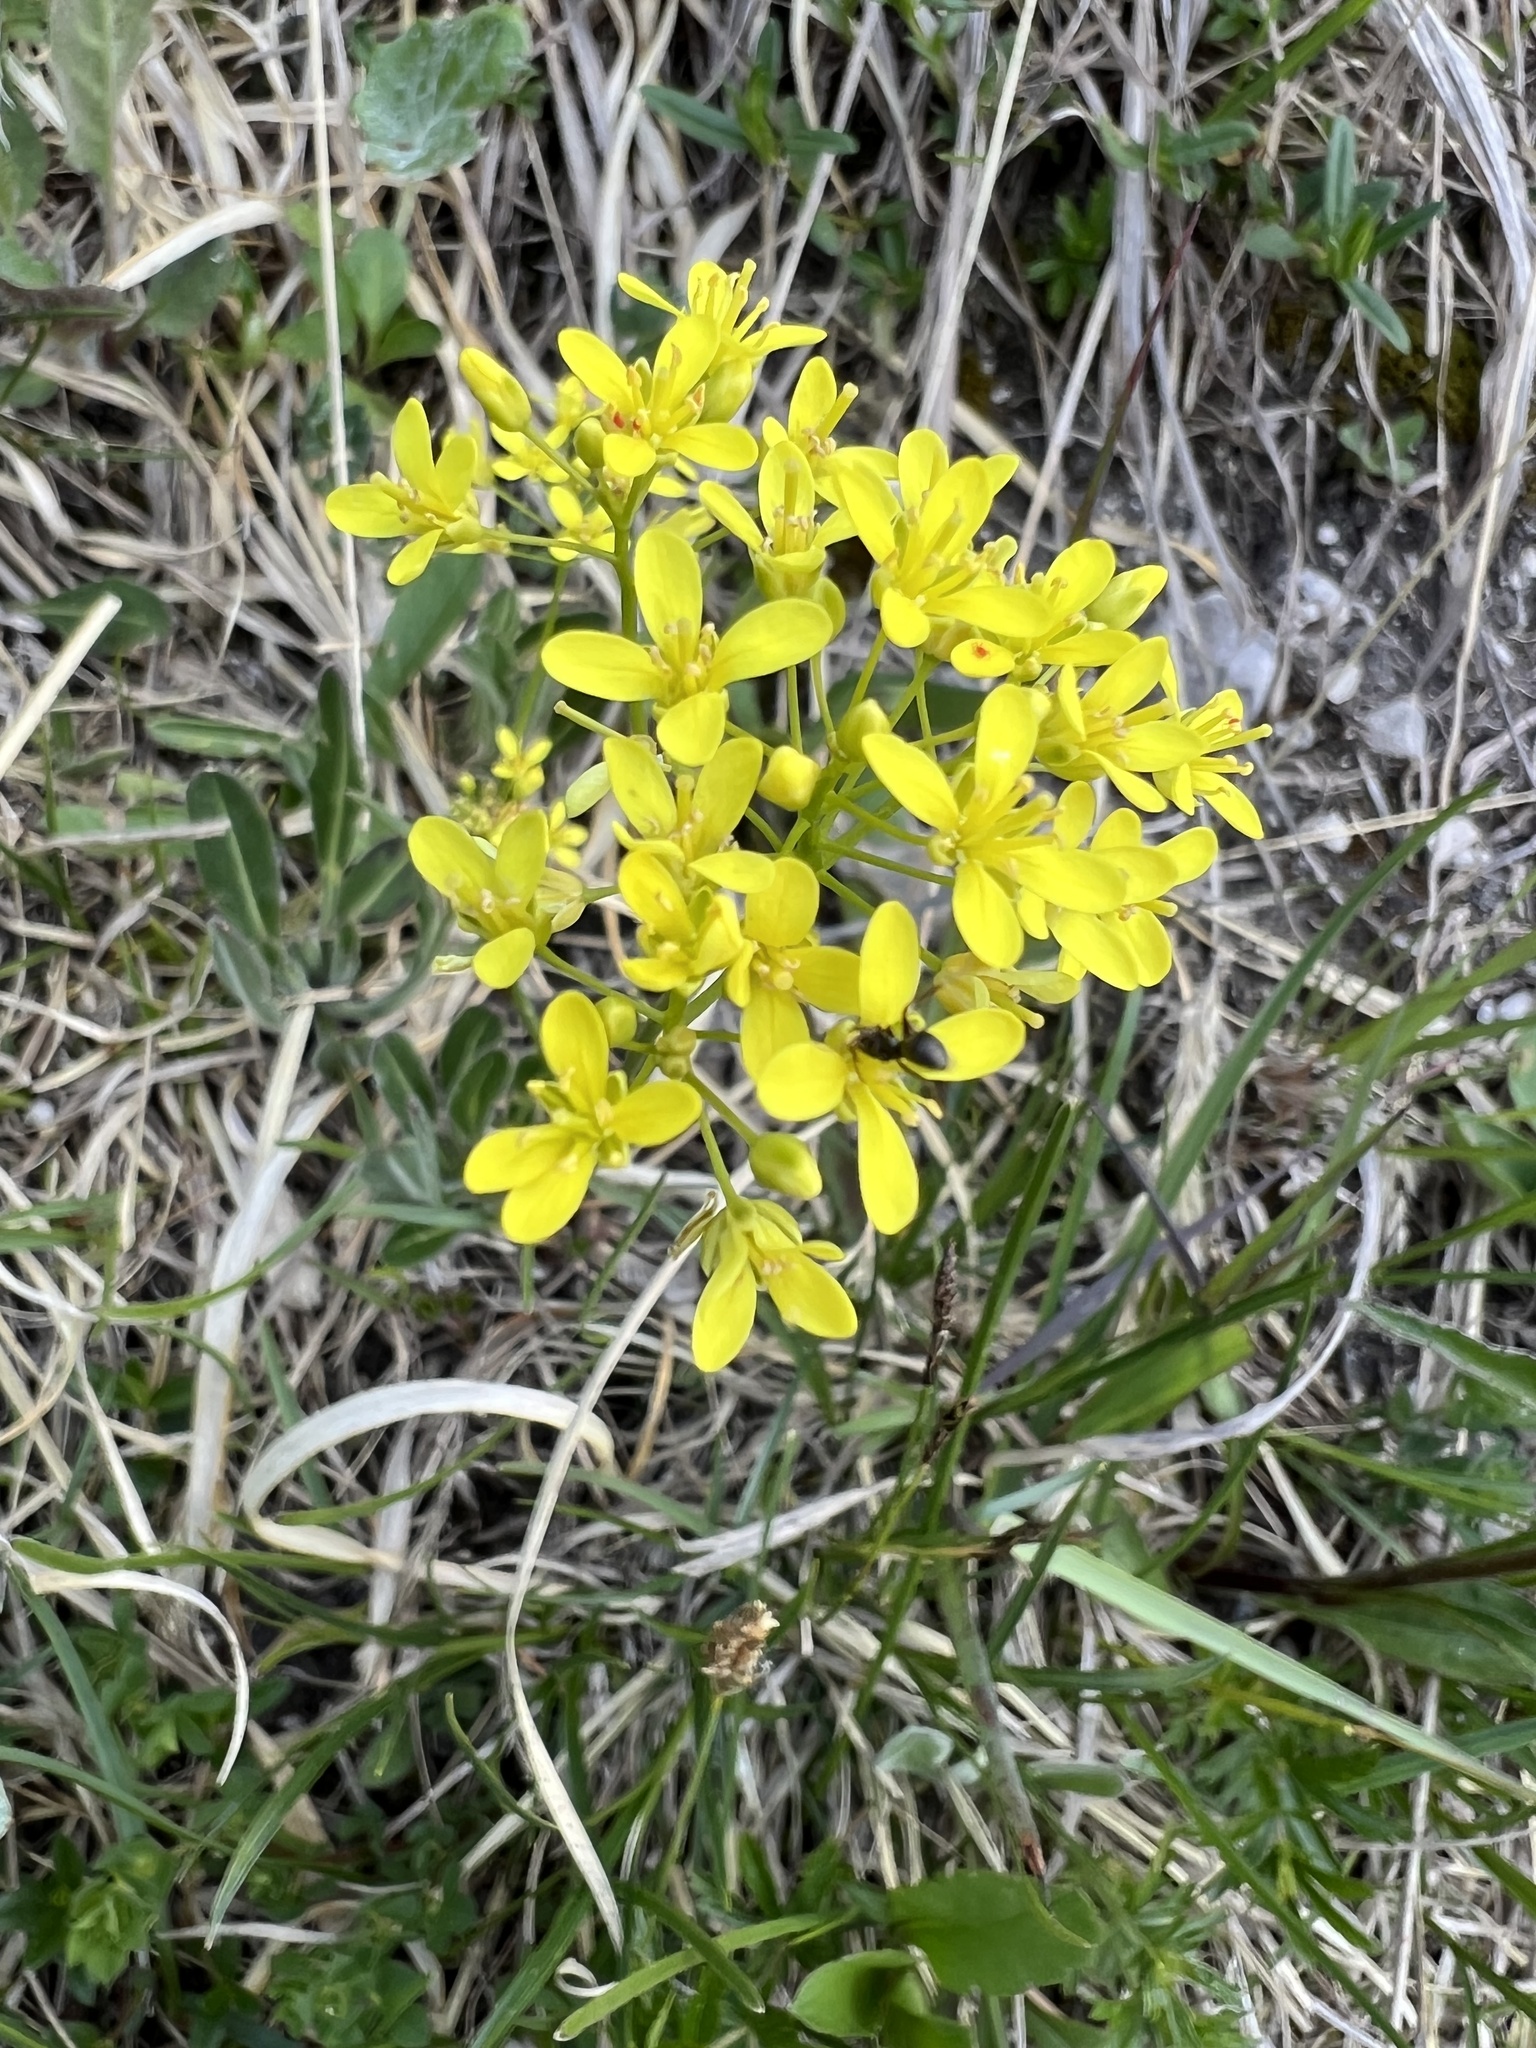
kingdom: Plantae
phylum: Tracheophyta
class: Magnoliopsida
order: Brassicales
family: Brassicaceae
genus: Biscutella
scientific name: Biscutella laevigata
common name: Buckler mustard
